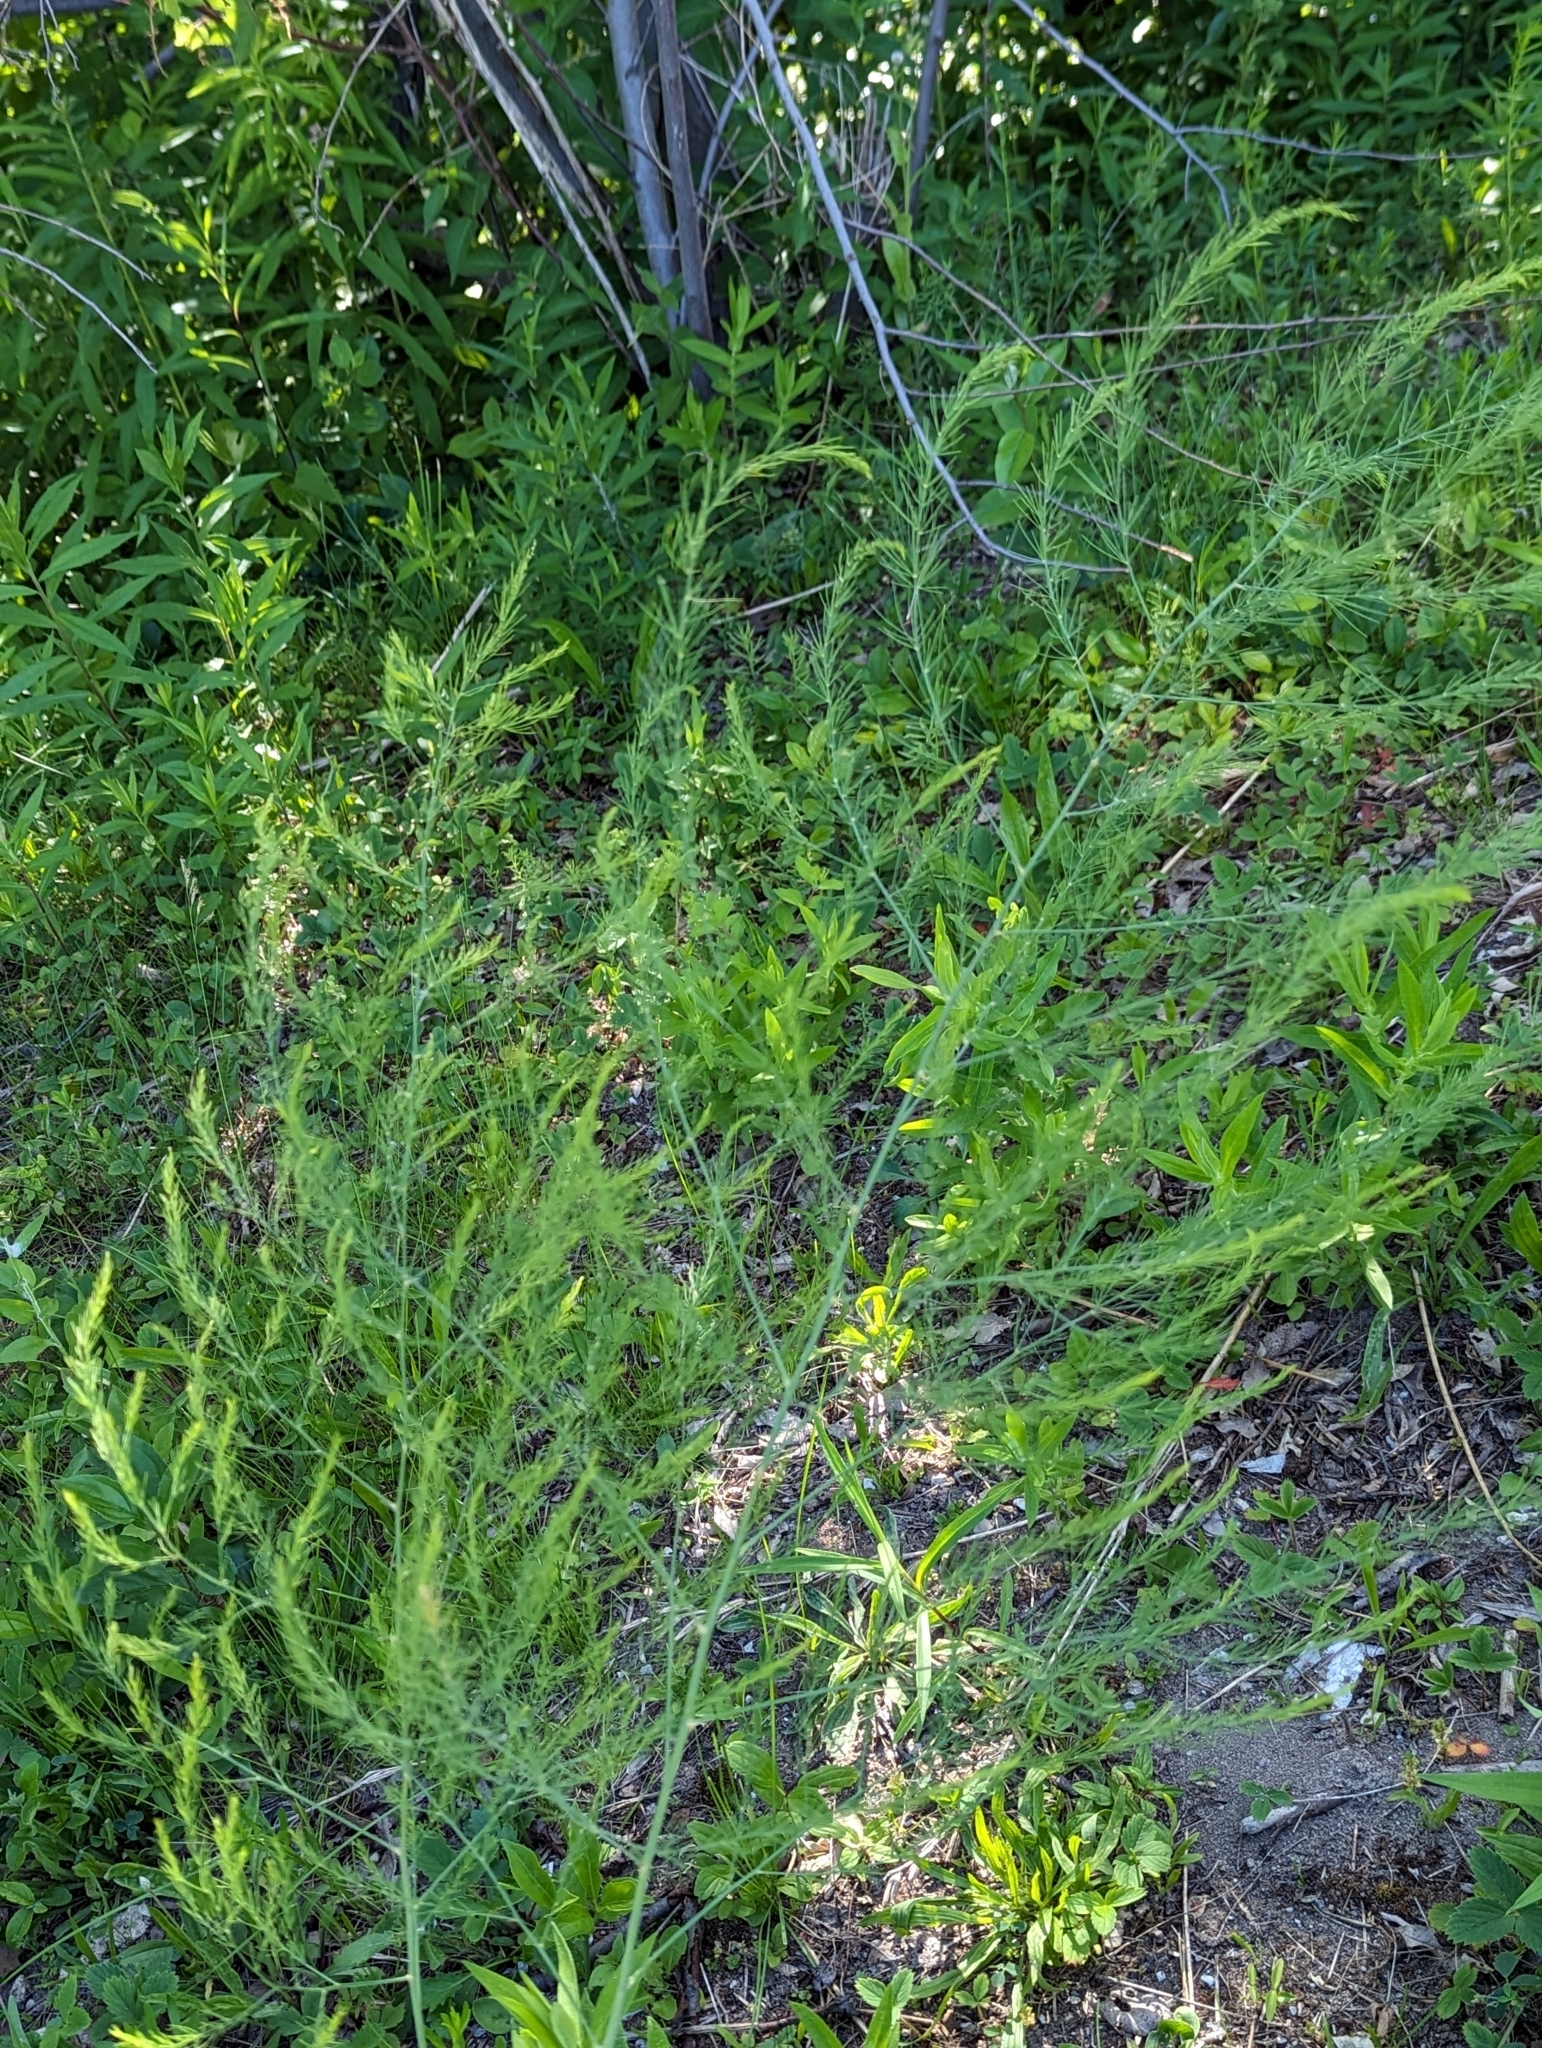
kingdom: Plantae
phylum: Tracheophyta
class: Liliopsida
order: Asparagales
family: Asparagaceae
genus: Asparagus
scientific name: Asparagus officinalis
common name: Garden asparagus
